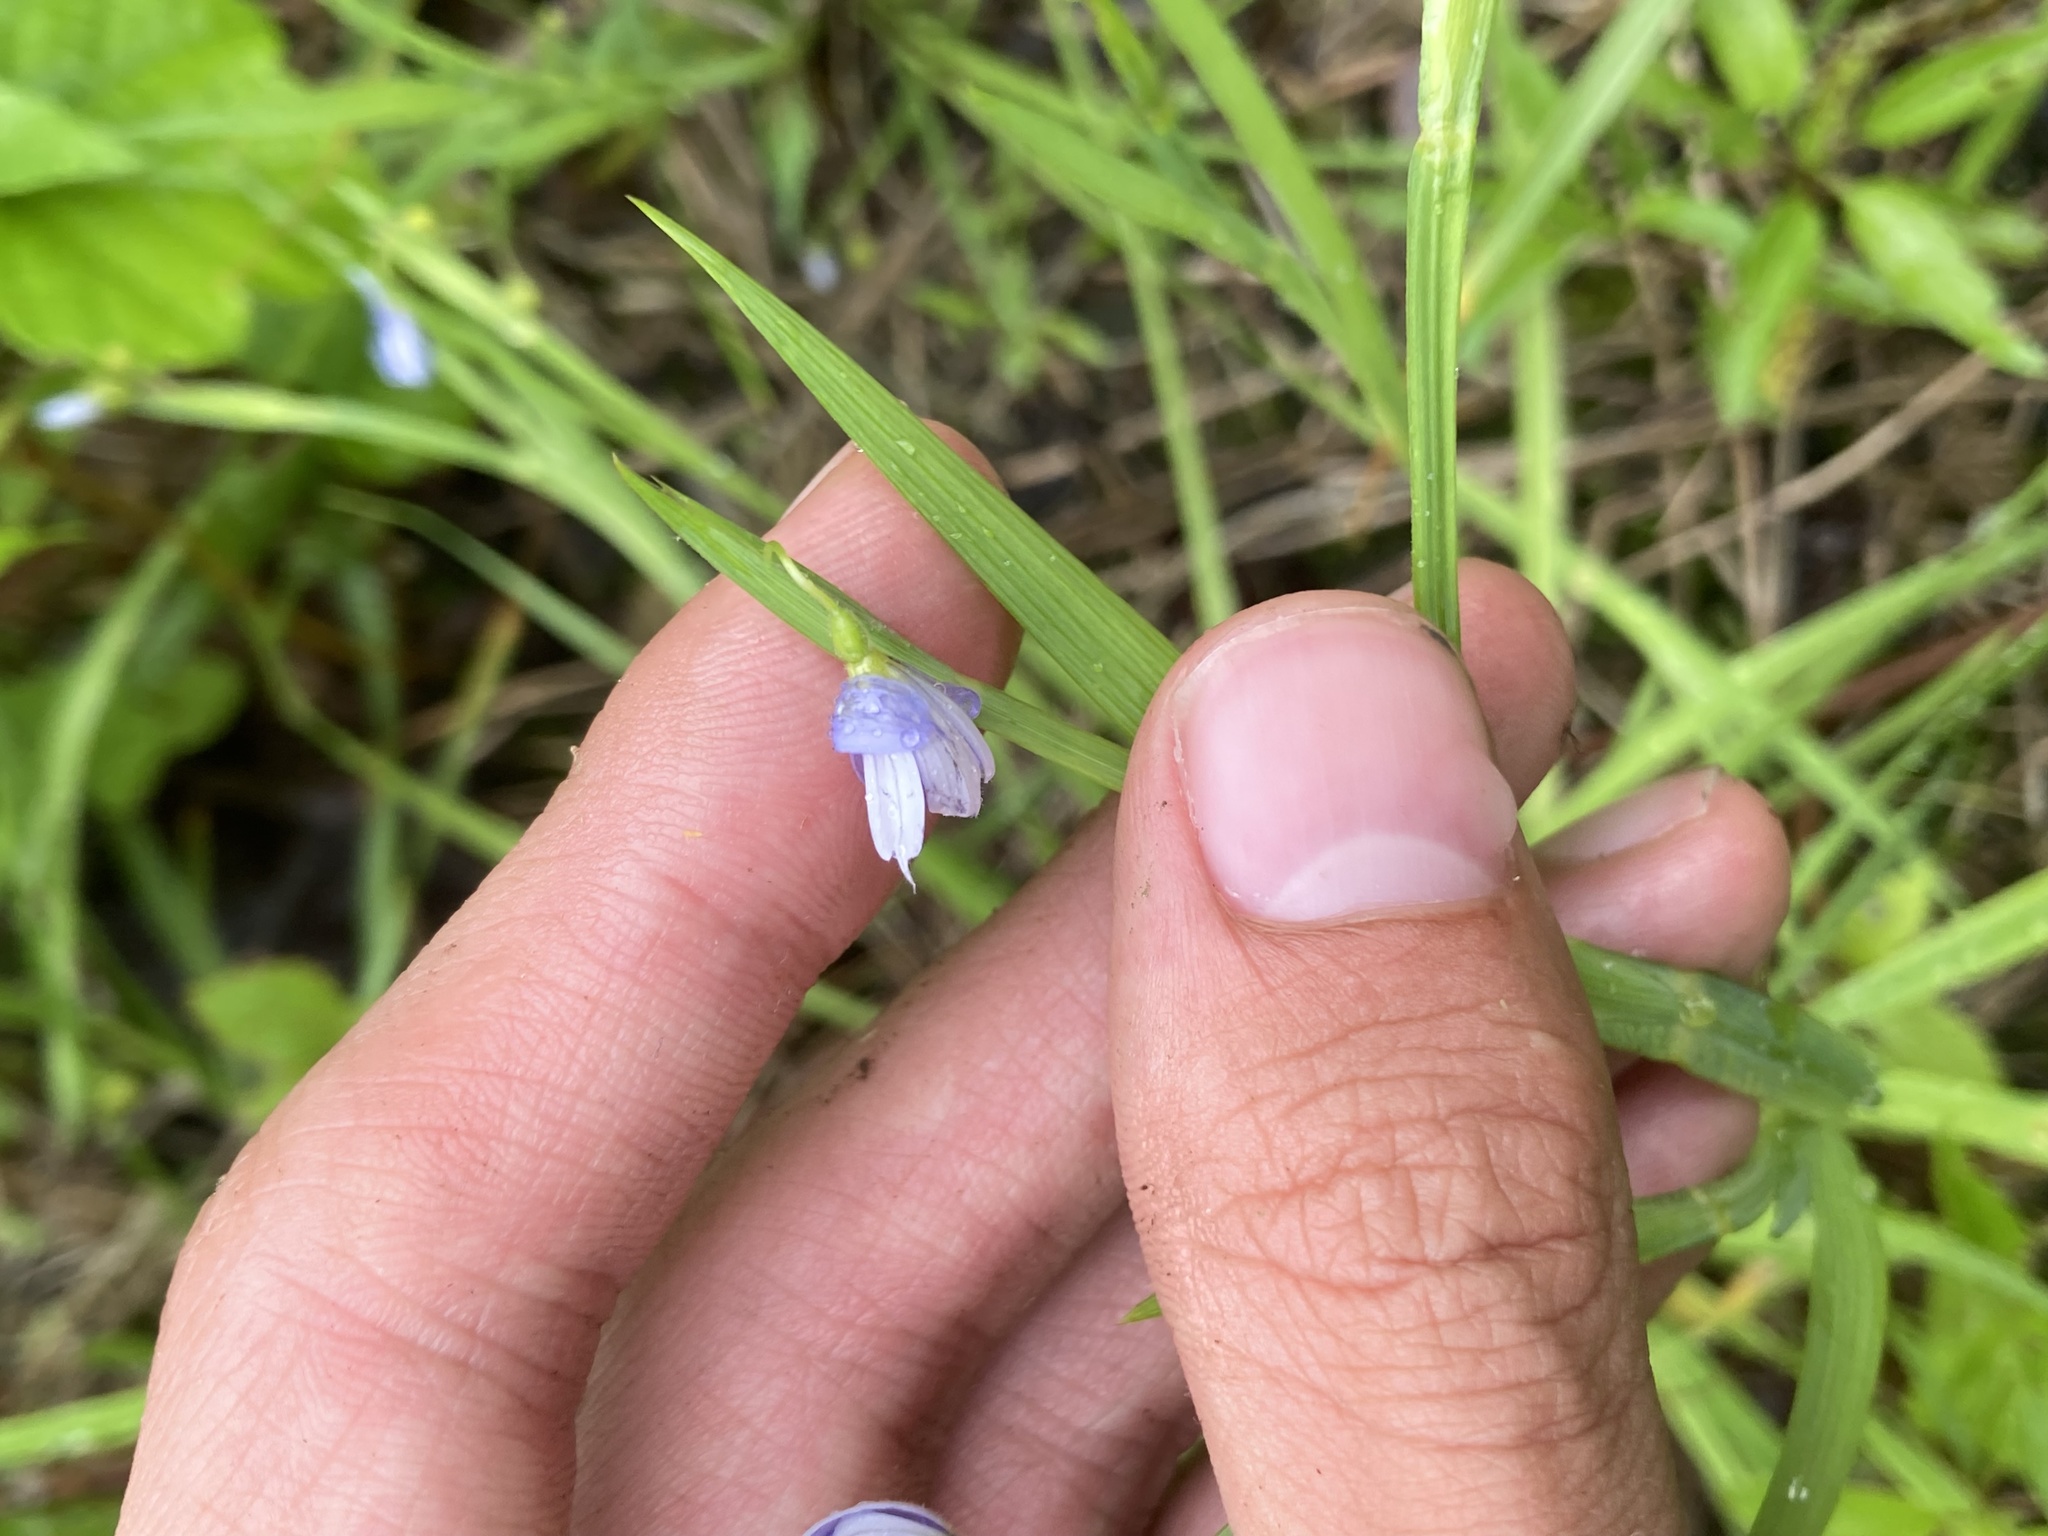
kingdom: Plantae
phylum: Tracheophyta
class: Liliopsida
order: Asparagales
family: Iridaceae
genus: Sisyrinchium
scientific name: Sisyrinchium angustifolium
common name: Narrow-leaf blue-eyed-grass
